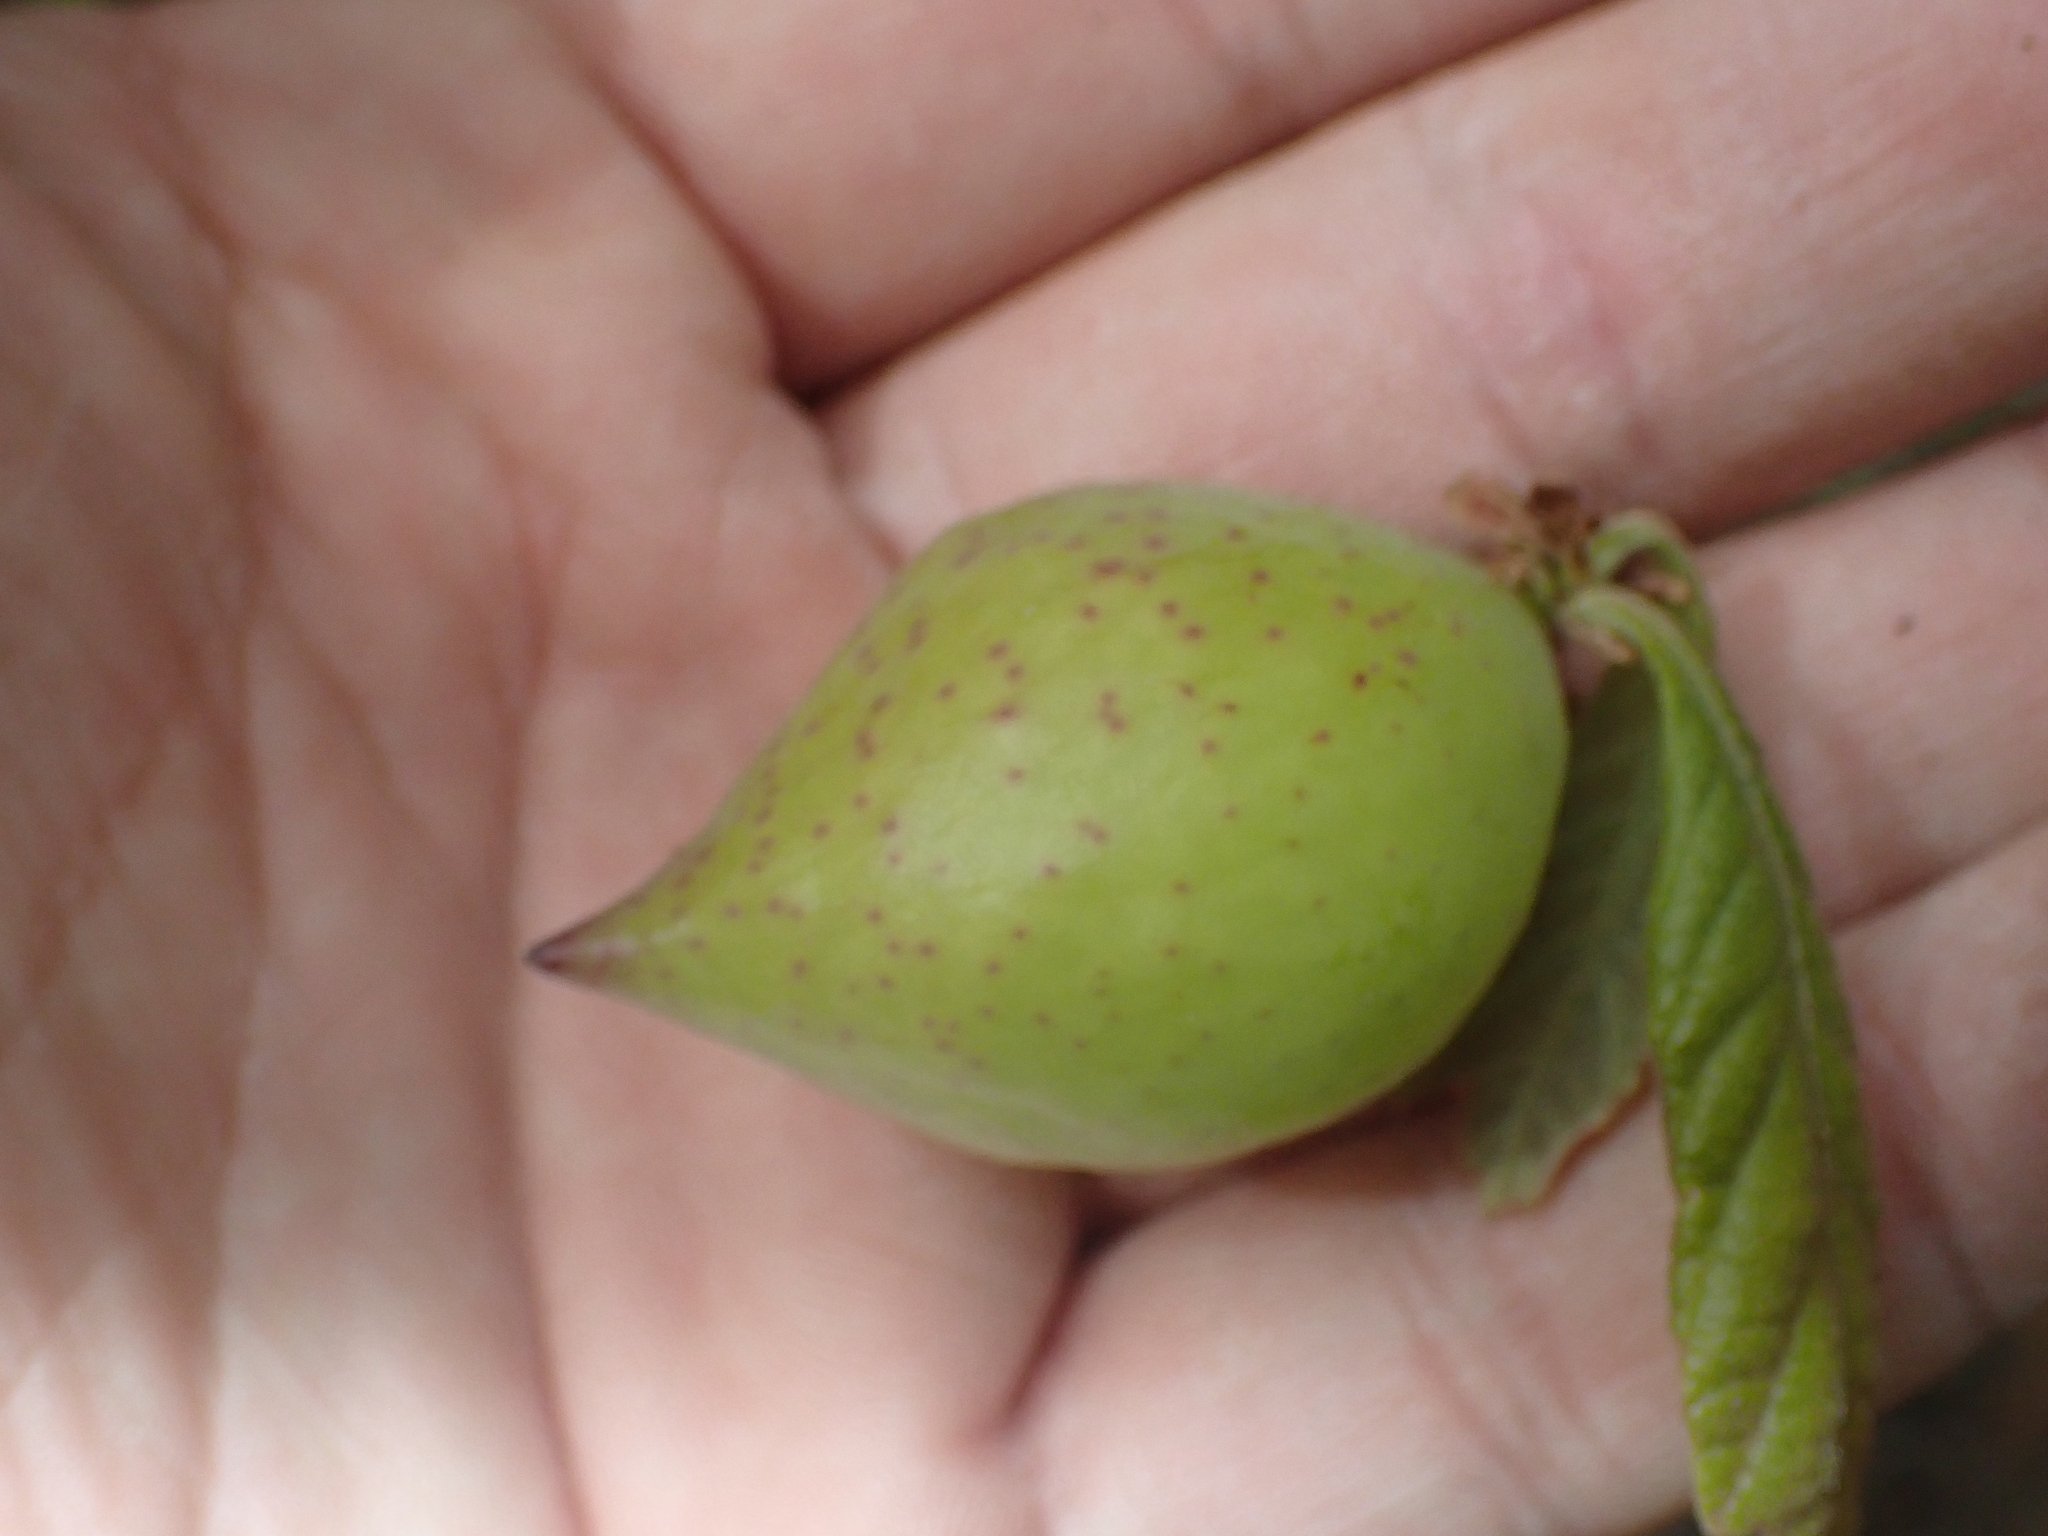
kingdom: Animalia
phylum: Arthropoda
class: Insecta
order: Hymenoptera
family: Cynipidae
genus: Amphibolips
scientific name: Amphibolips
